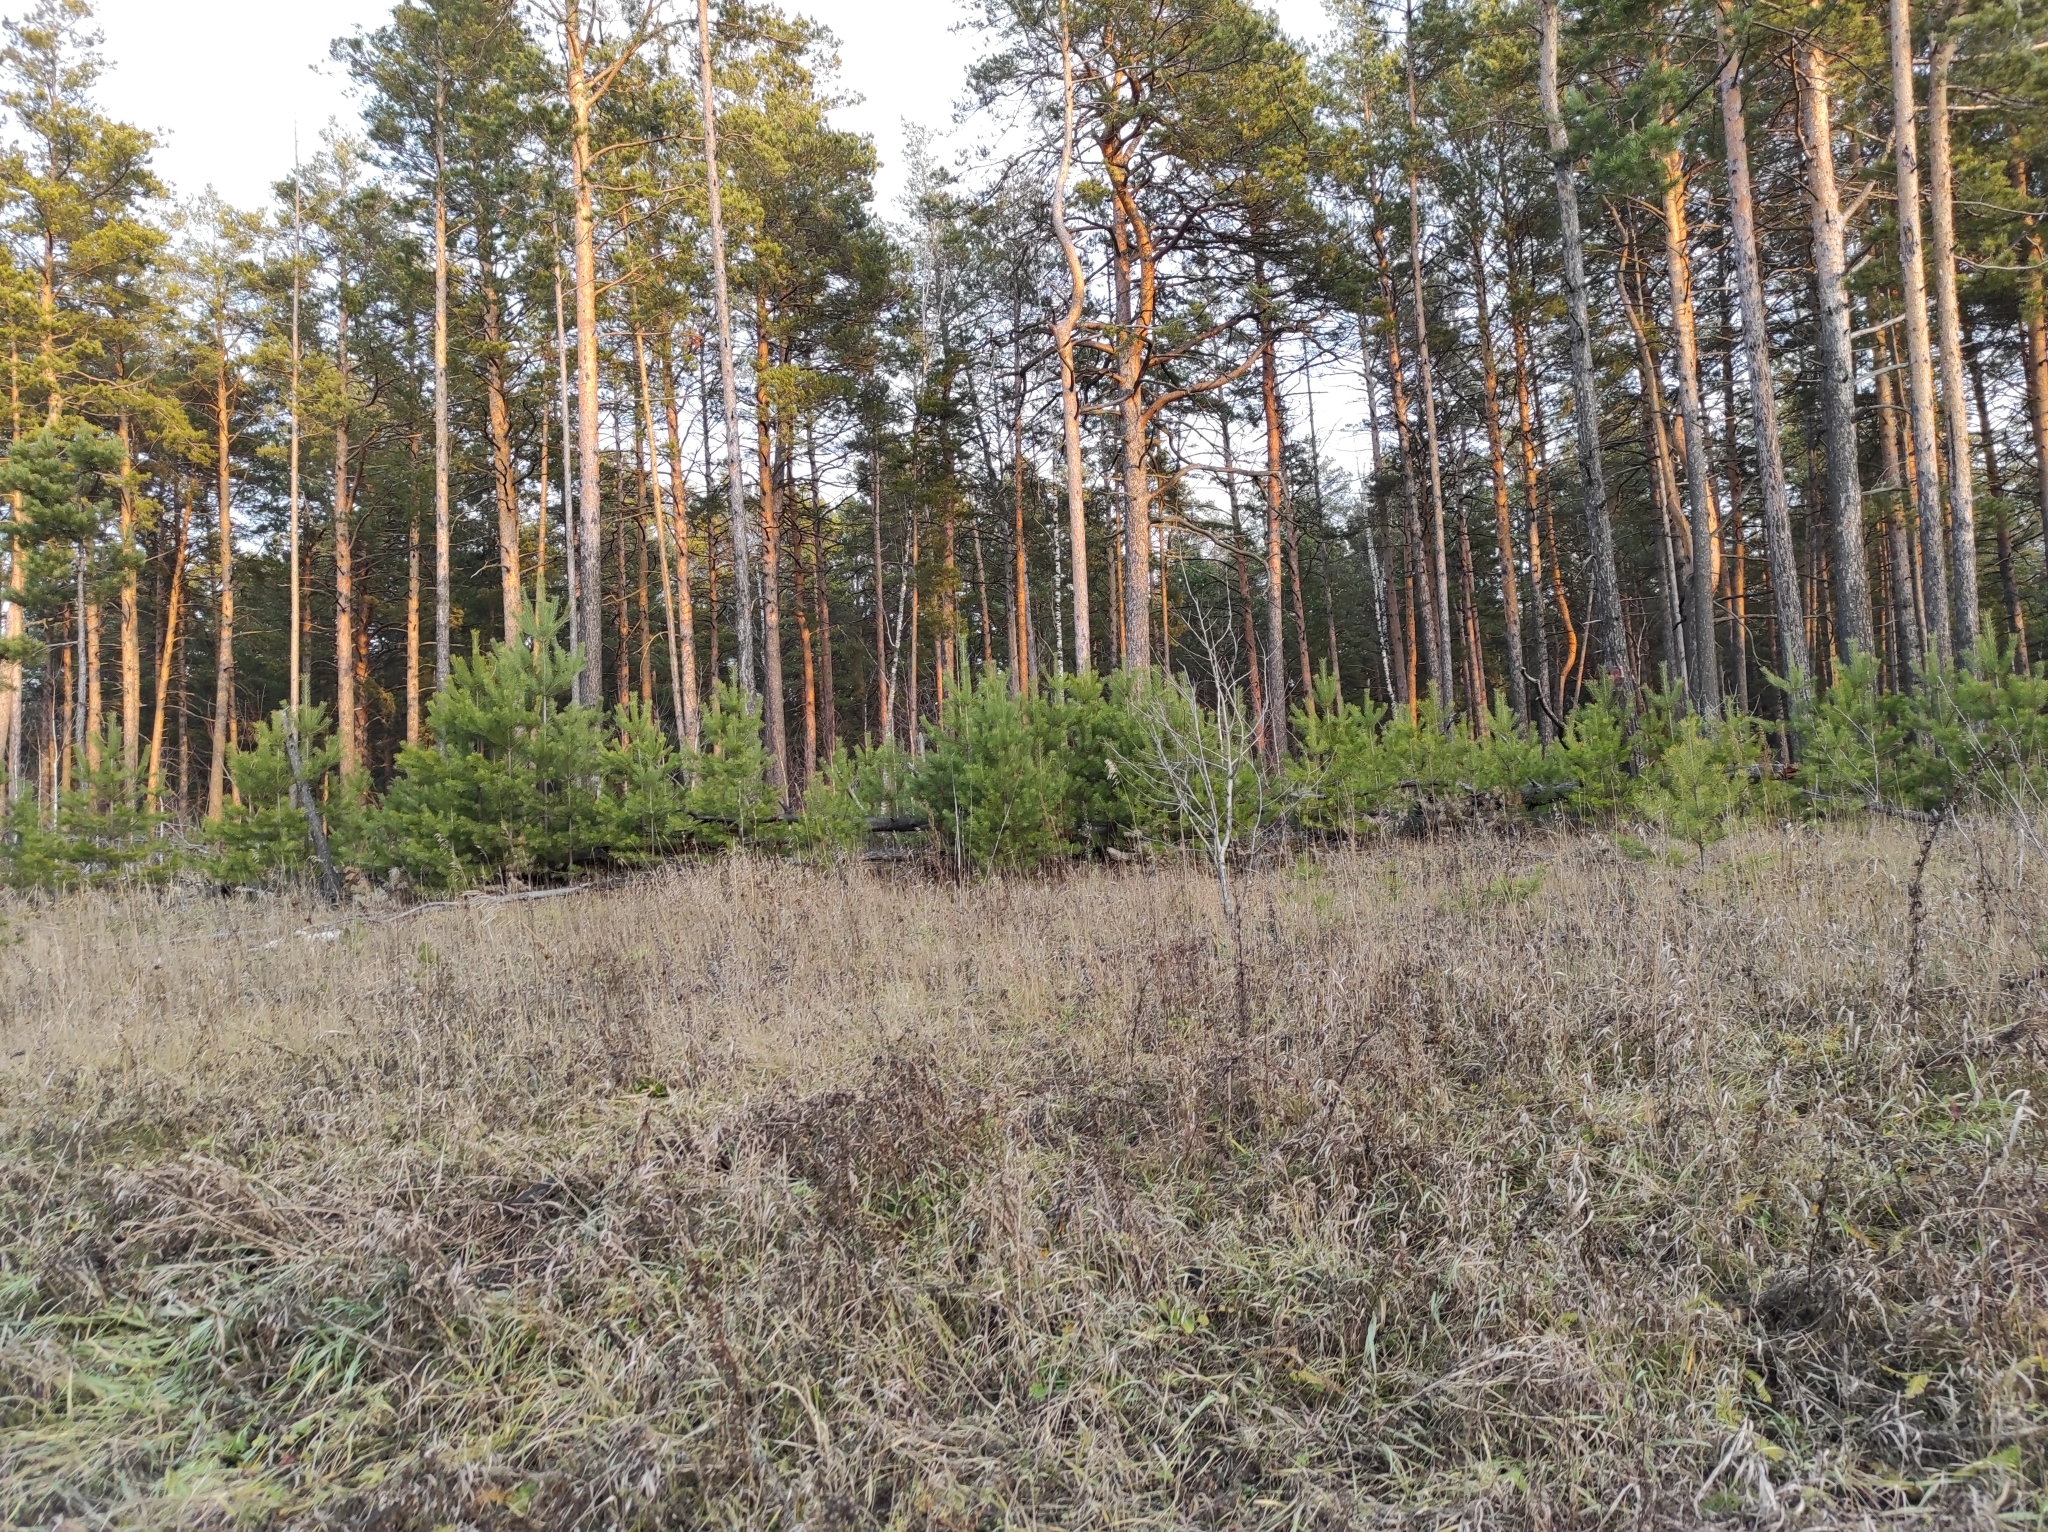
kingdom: Plantae
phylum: Tracheophyta
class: Pinopsida
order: Pinales
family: Pinaceae
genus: Pinus
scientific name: Pinus sylvestris
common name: Scots pine
